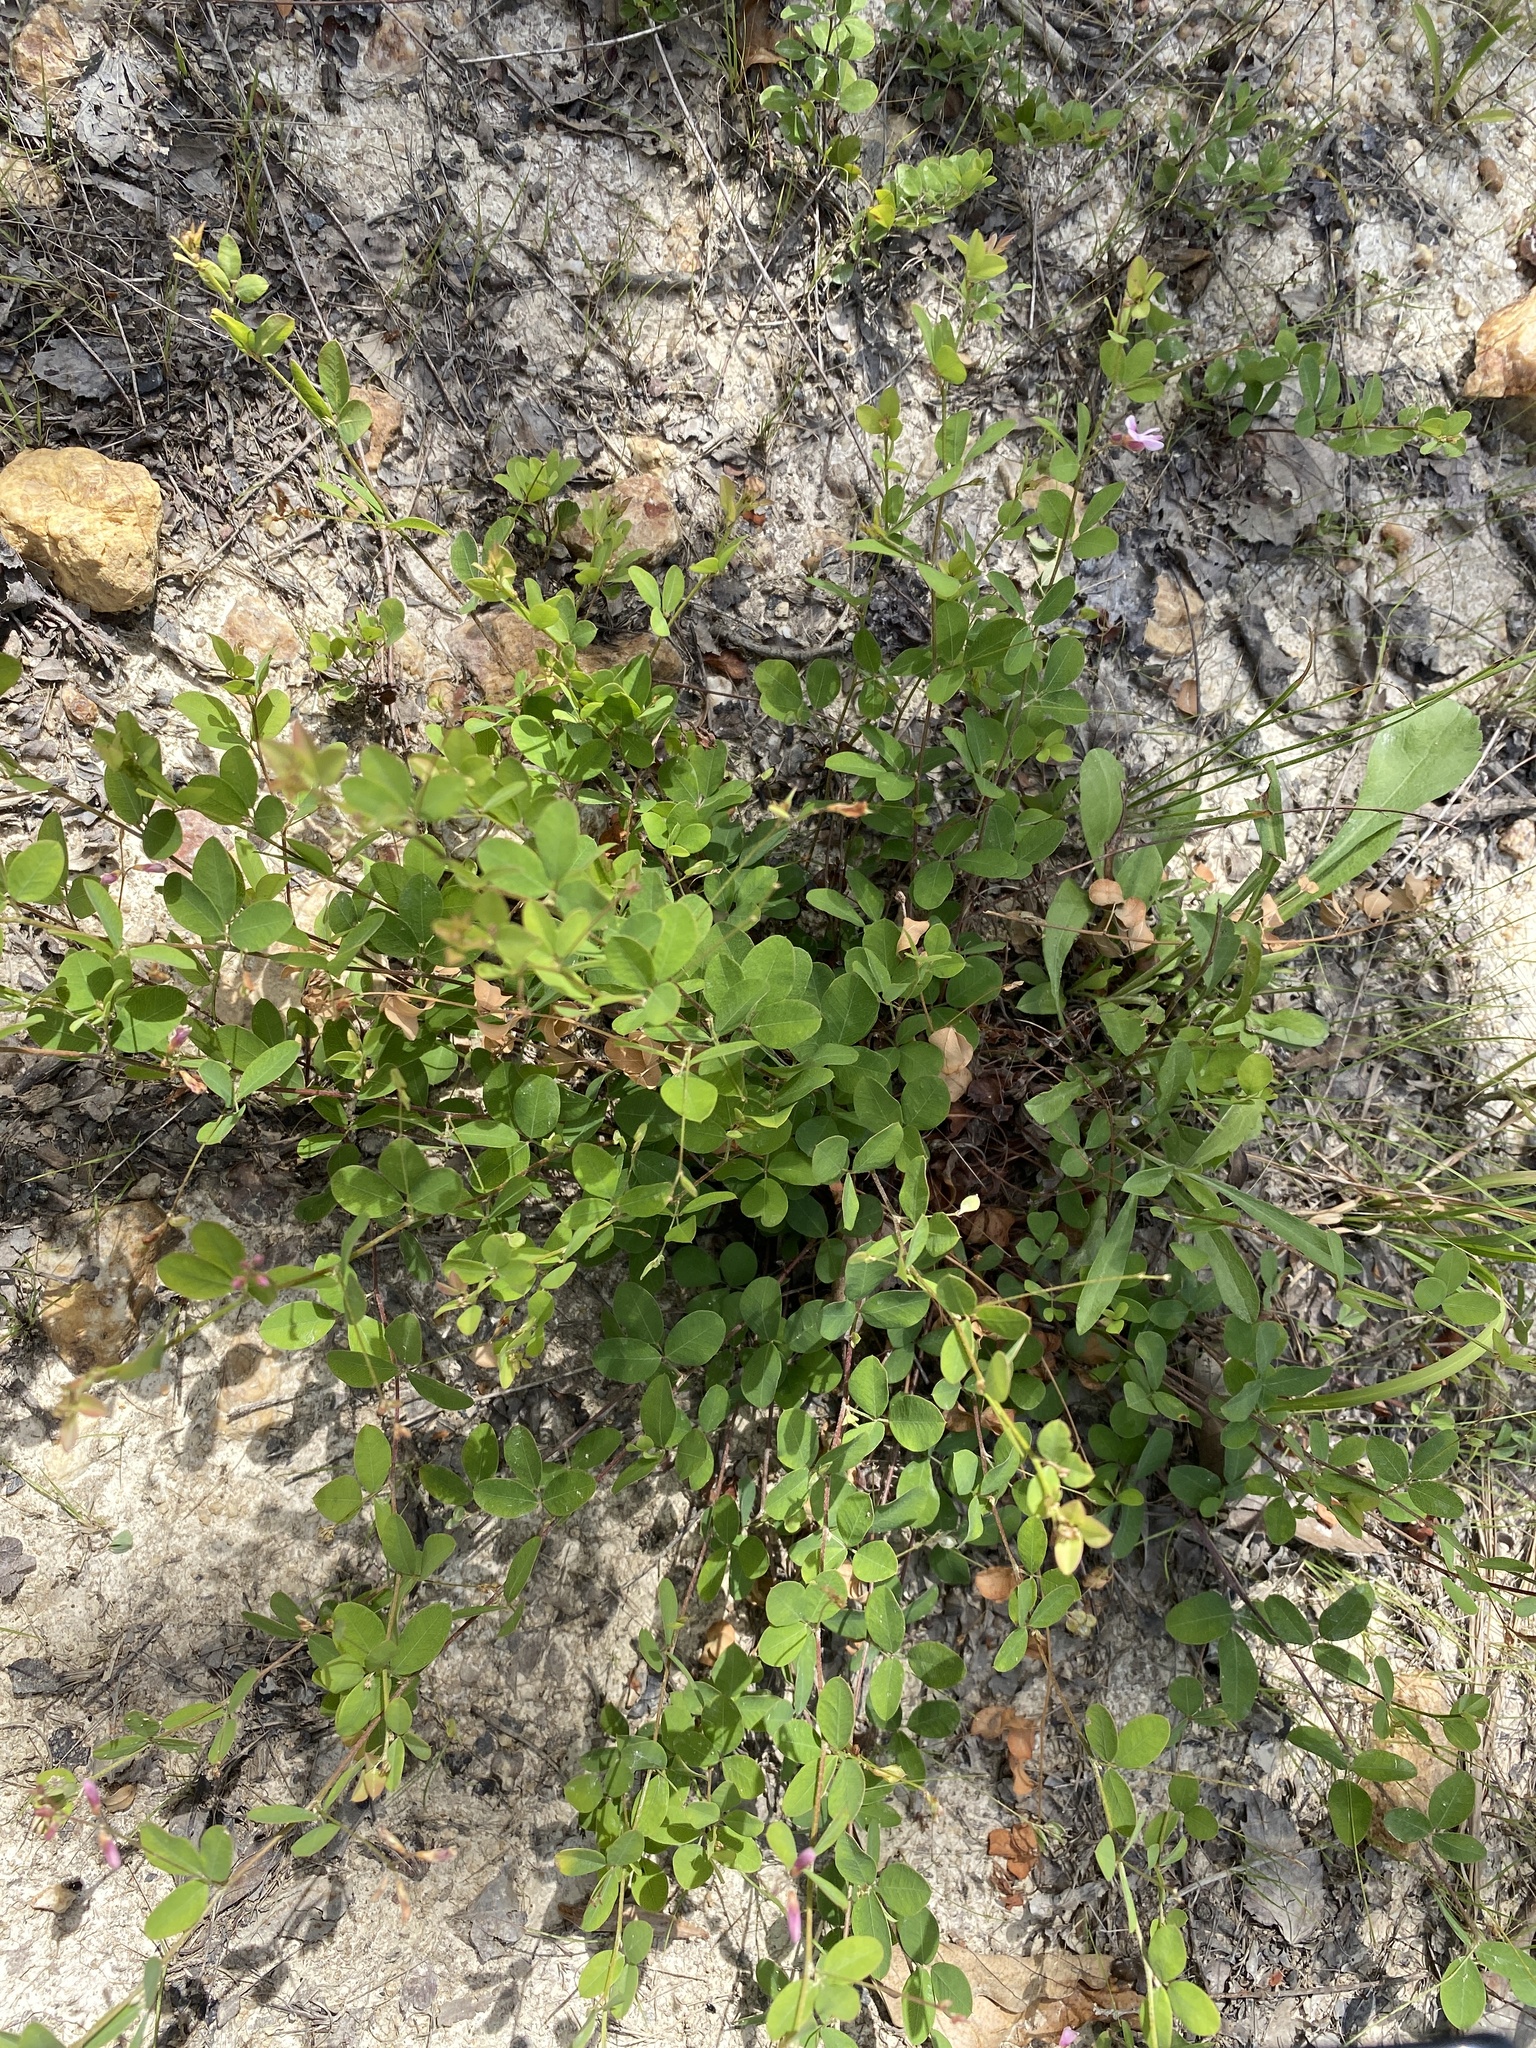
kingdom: Plantae
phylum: Tracheophyta
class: Magnoliopsida
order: Fabales
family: Fabaceae
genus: Lespedeza
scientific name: Lespedeza repens
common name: Creeping bush-clover
